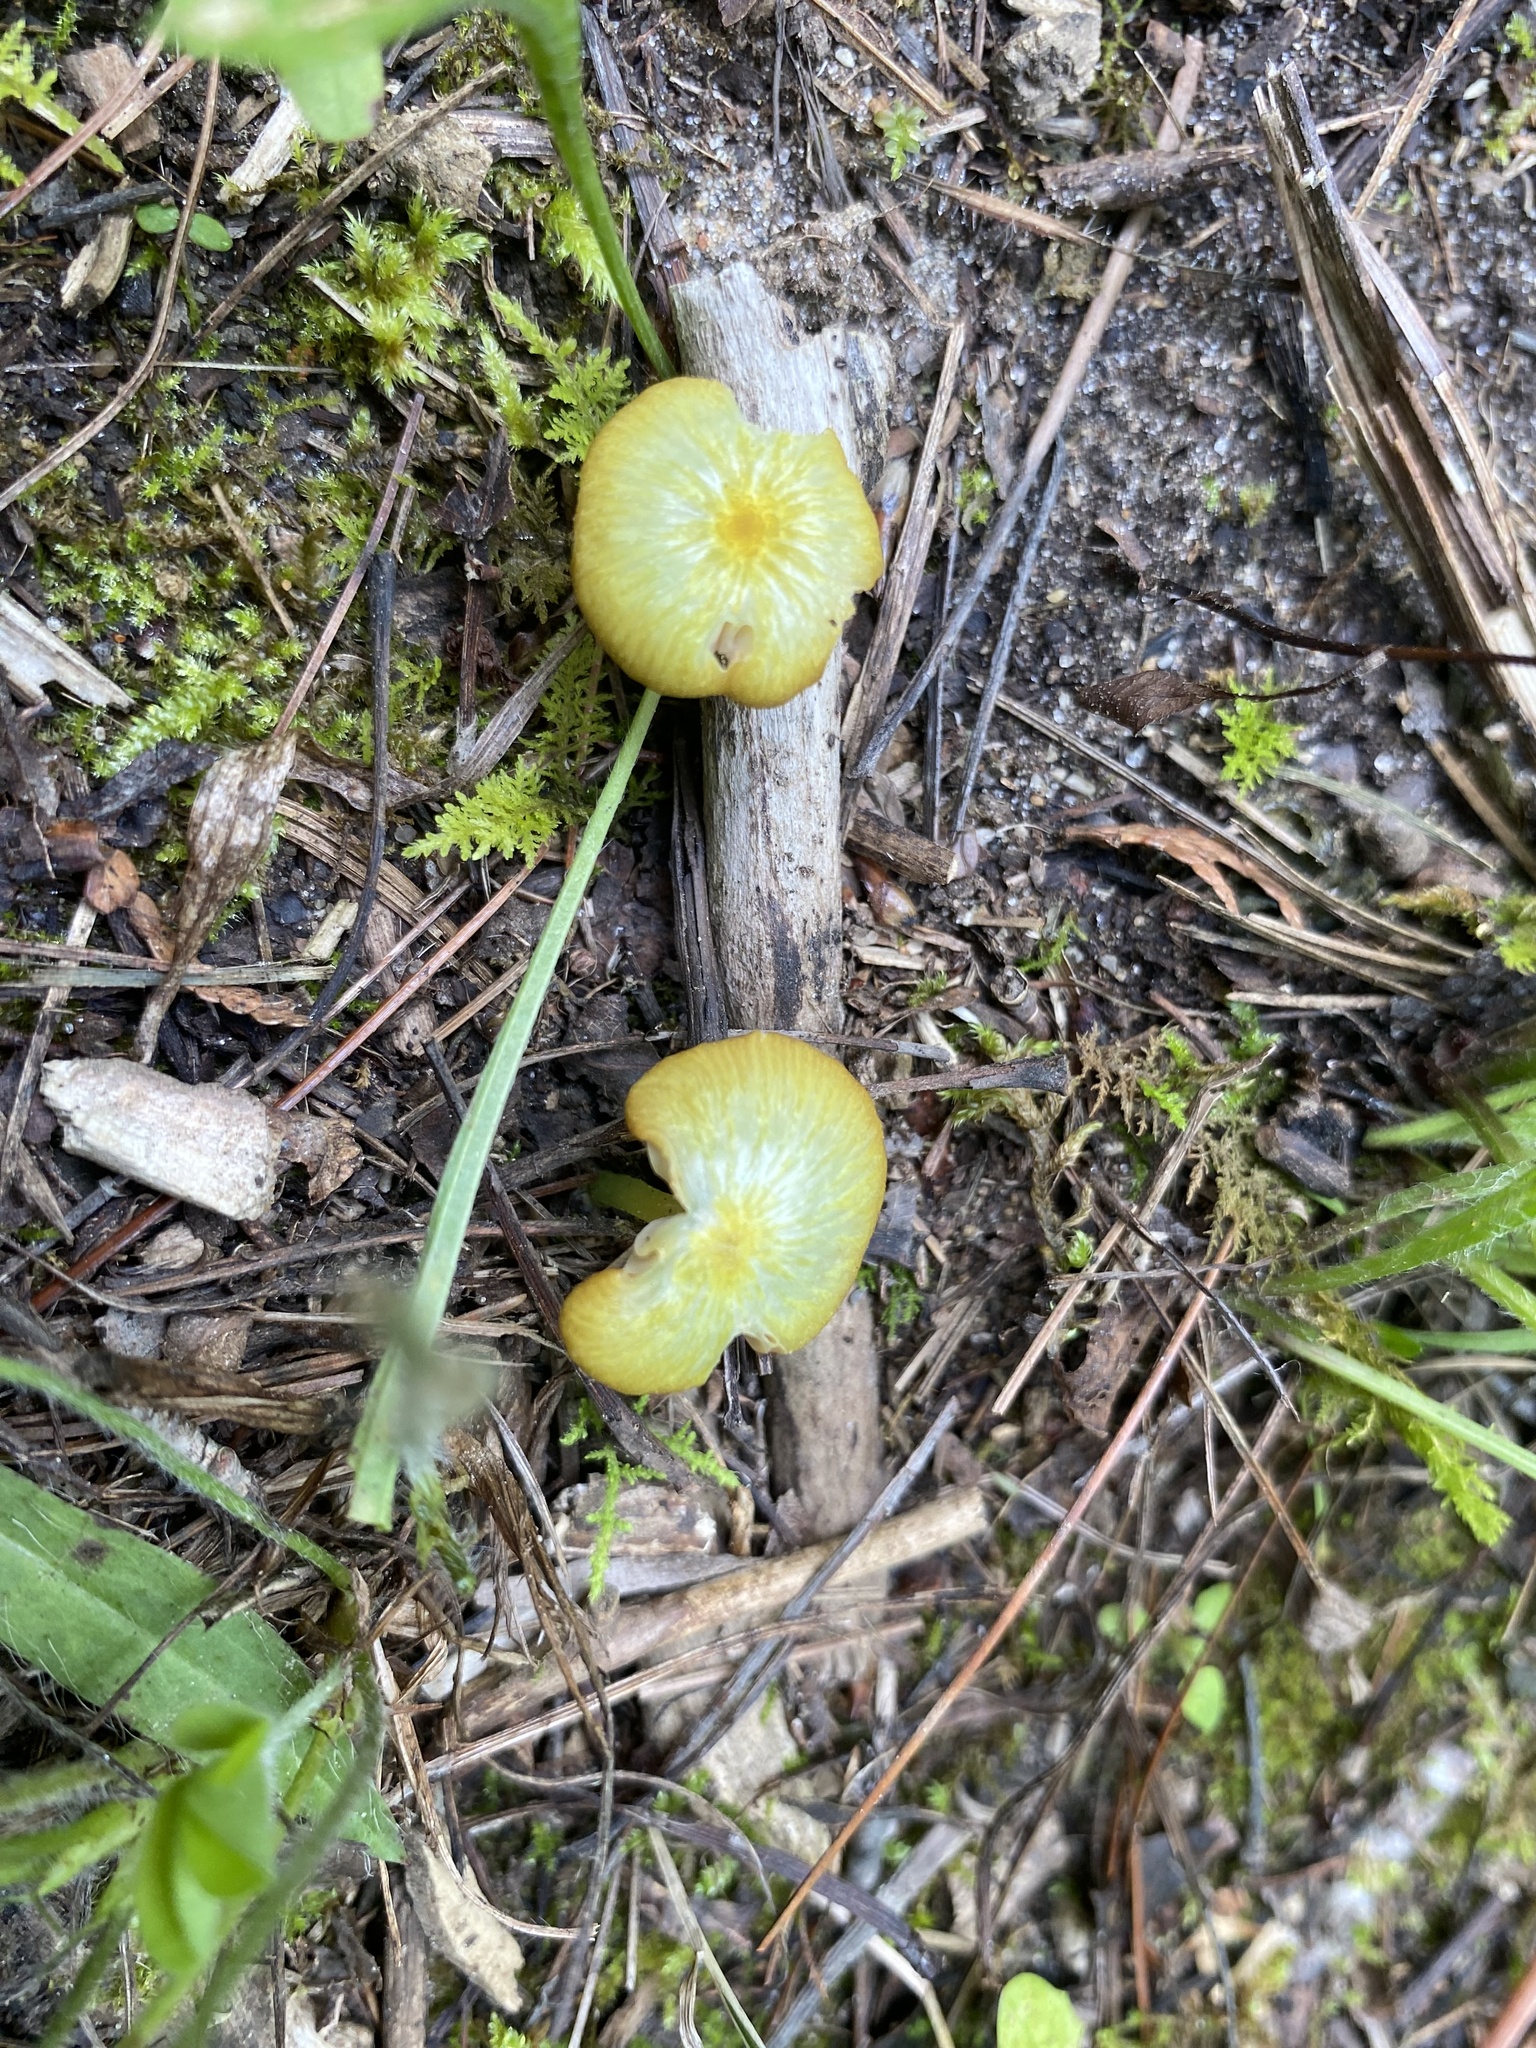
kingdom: Fungi
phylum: Basidiomycota
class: Agaricomycetes
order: Agaricales
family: Entolomataceae
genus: Entoloma
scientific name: Entoloma incanum
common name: Mousepee pinkgill
